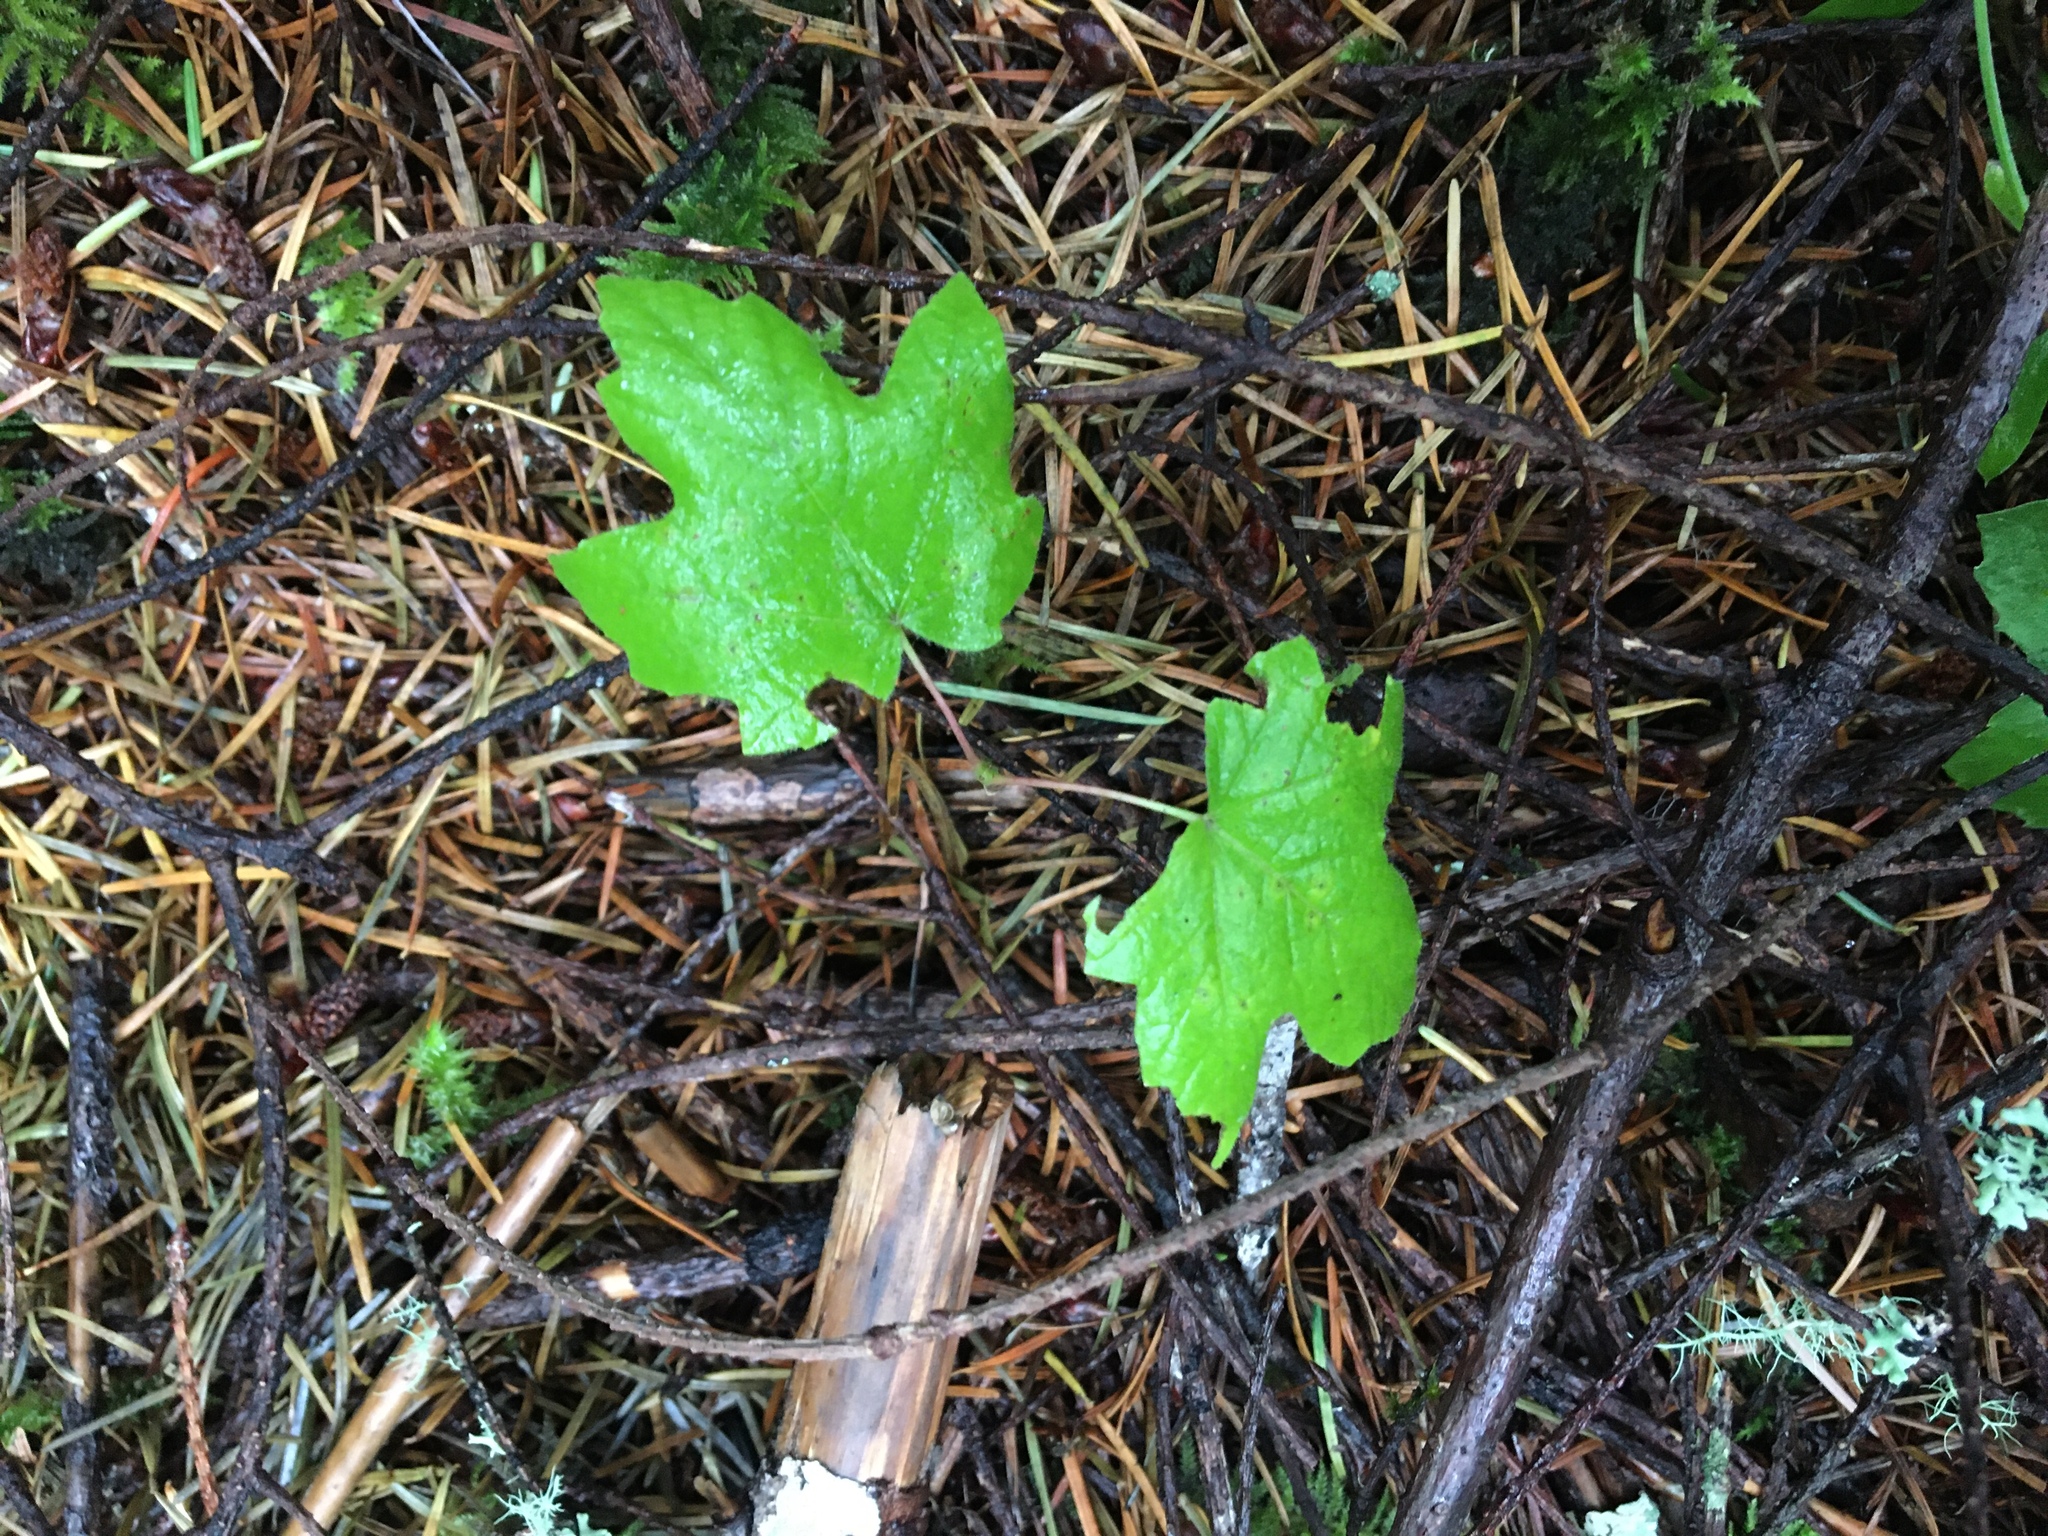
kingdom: Plantae
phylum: Tracheophyta
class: Magnoliopsida
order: Sapindales
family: Sapindaceae
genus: Acer
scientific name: Acer macrophyllum
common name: Oregon maple
